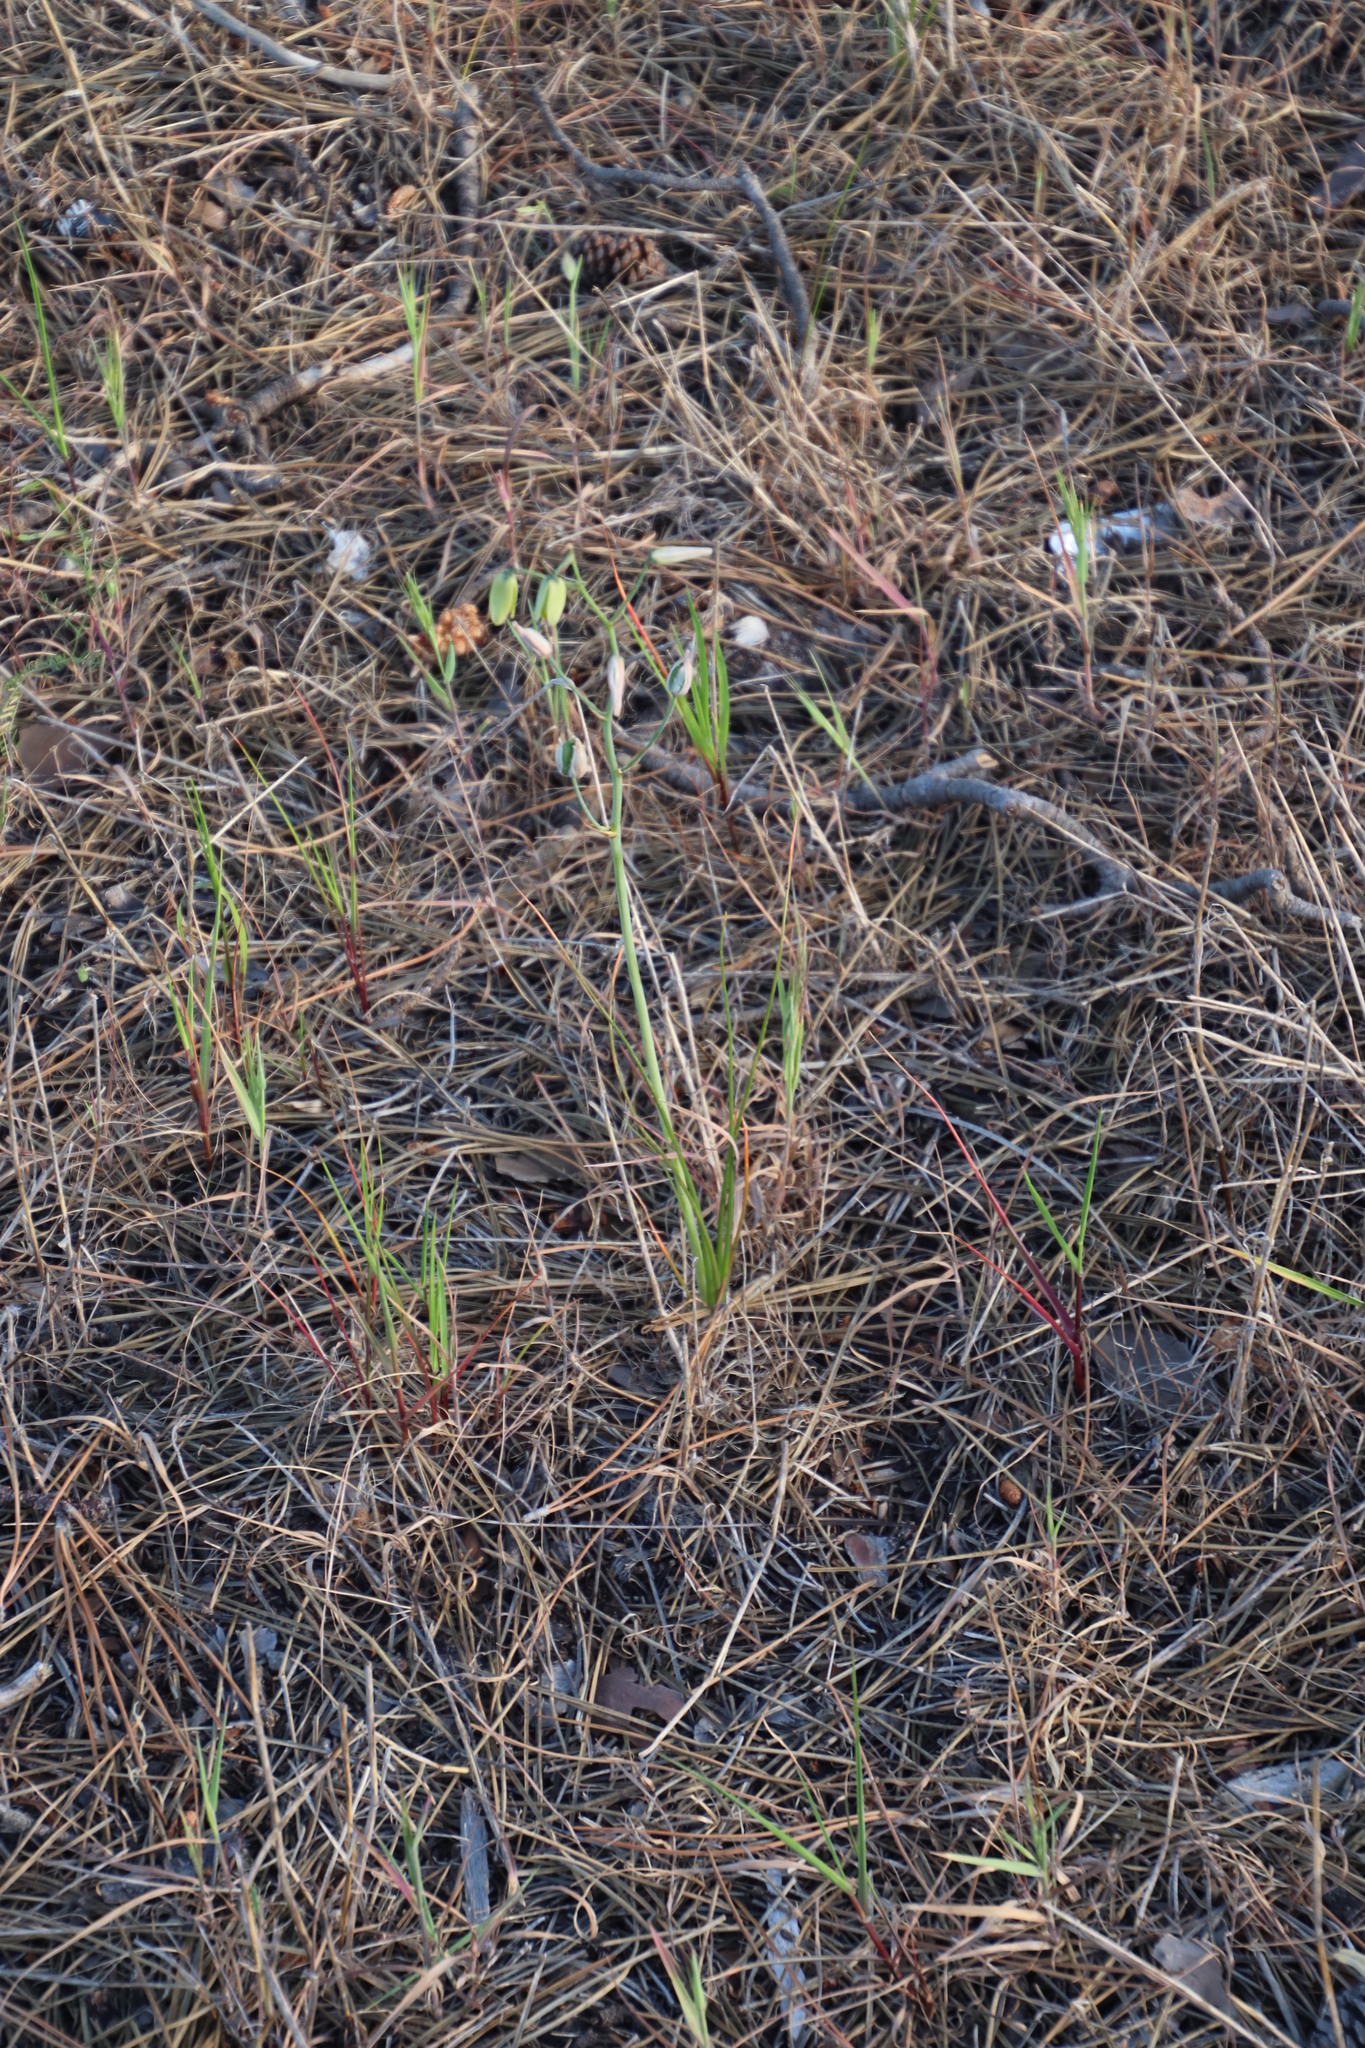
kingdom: Plantae
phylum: Tracheophyta
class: Liliopsida
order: Asparagales
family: Asparagaceae
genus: Albuca
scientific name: Albuca juncifolia
